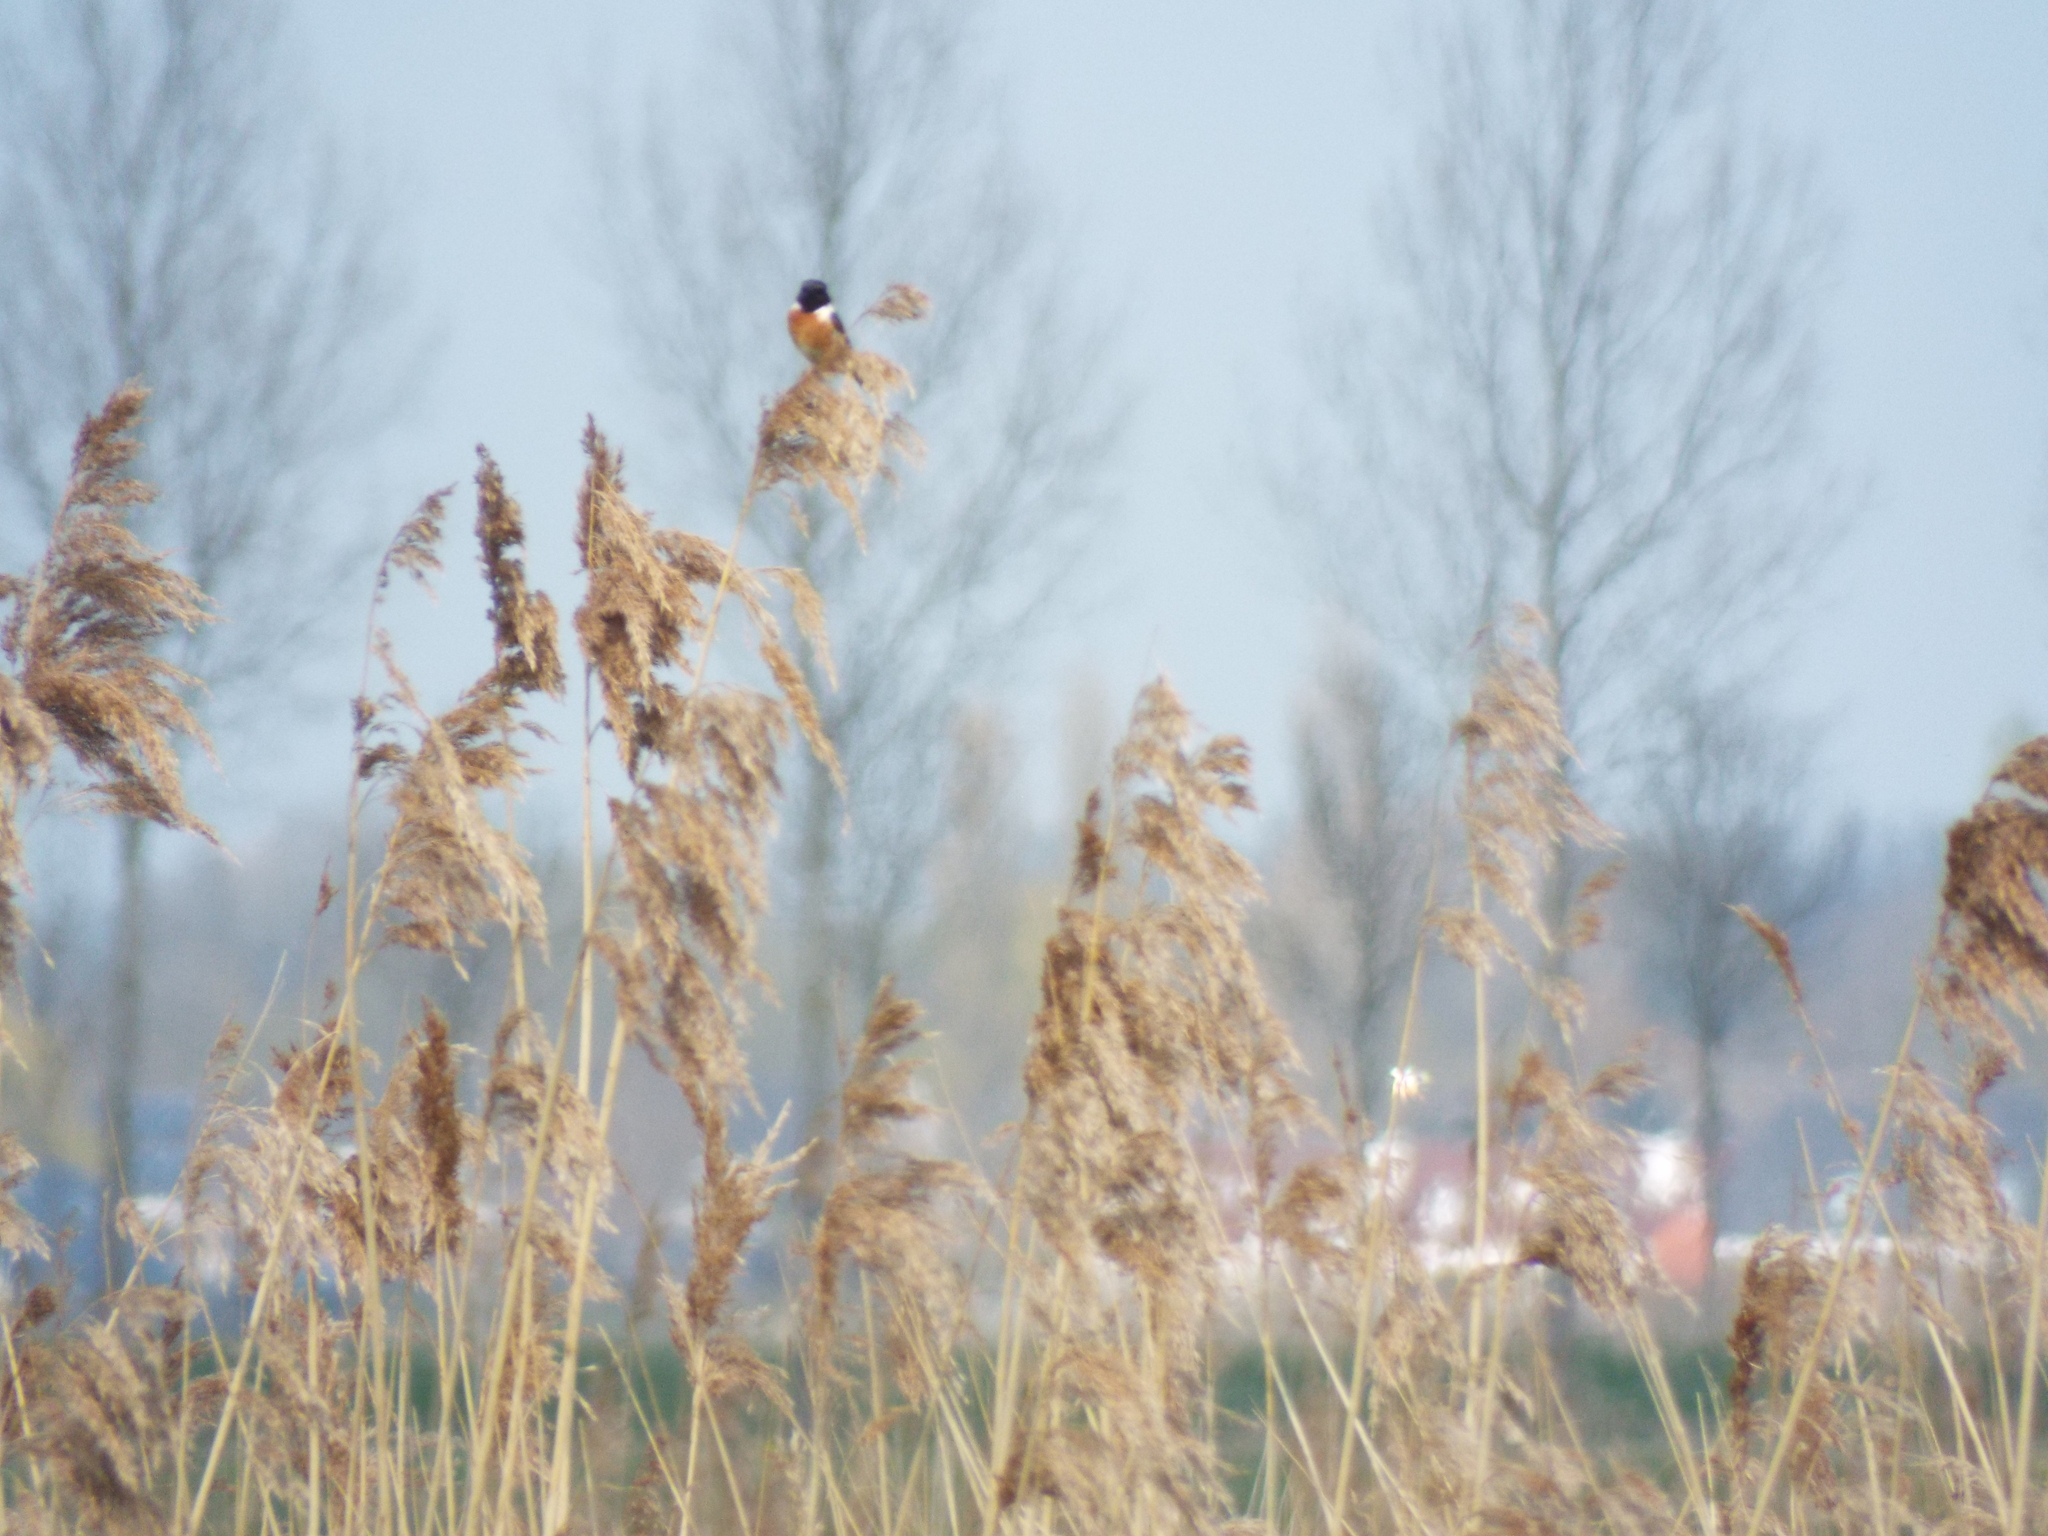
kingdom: Animalia
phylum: Chordata
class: Aves
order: Passeriformes
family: Muscicapidae
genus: Saxicola
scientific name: Saxicola rubicola
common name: European stonechat
